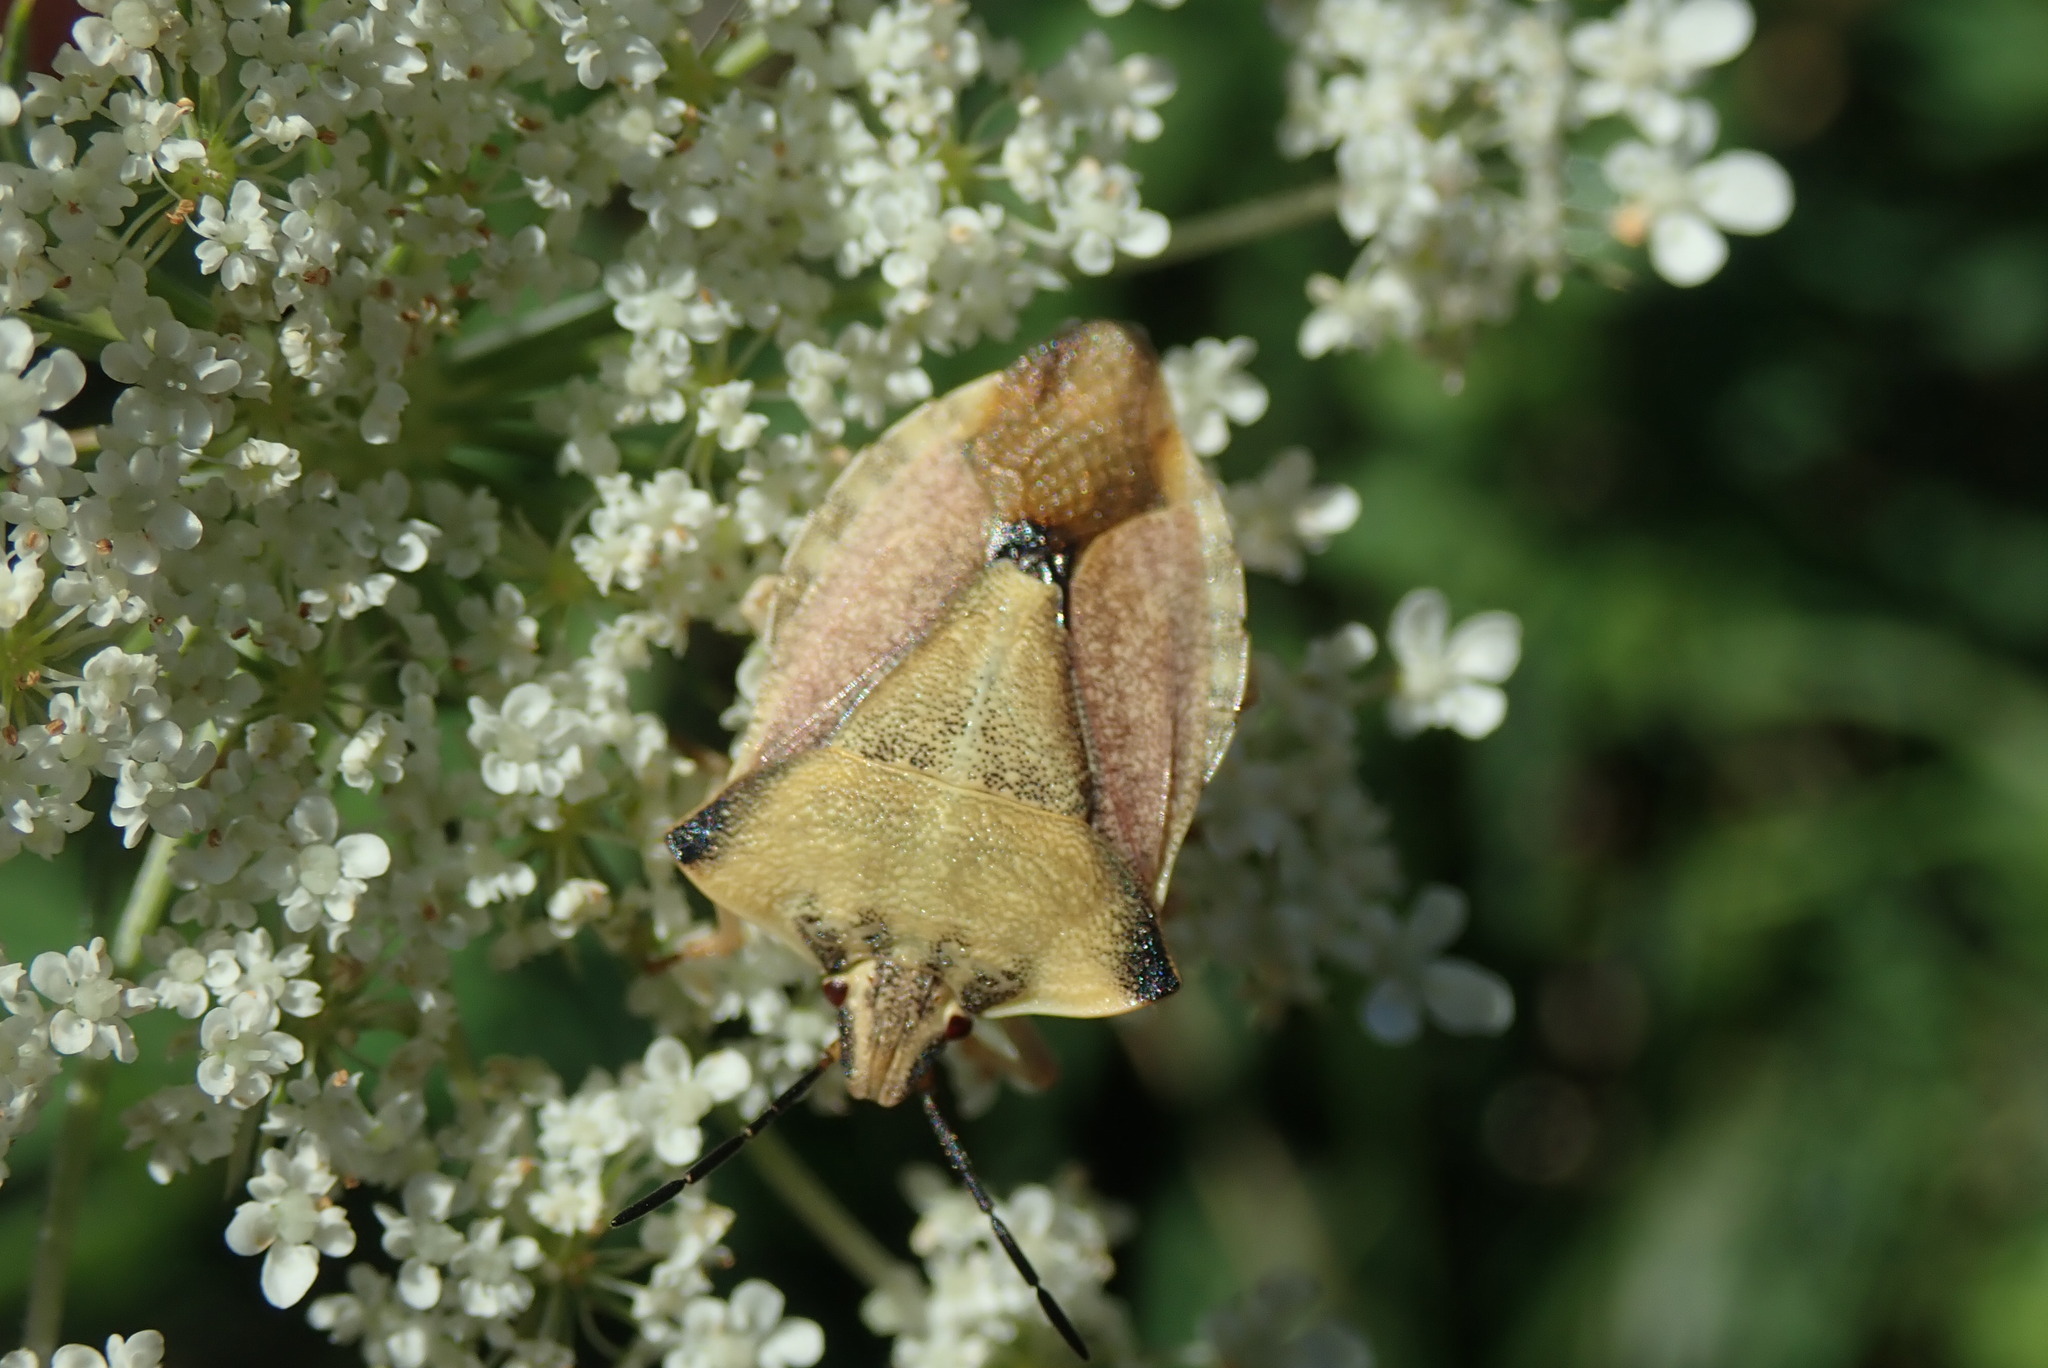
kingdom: Animalia
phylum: Arthropoda
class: Insecta
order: Hemiptera
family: Pentatomidae
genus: Carpocoris
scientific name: Carpocoris fuscispinus
